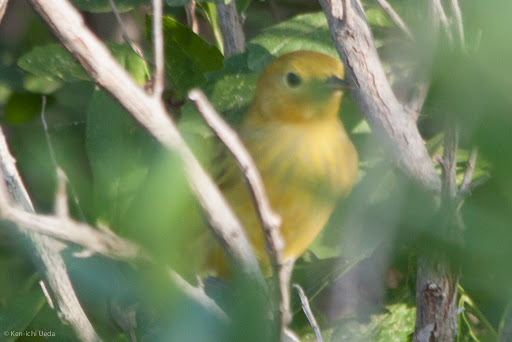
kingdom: Animalia
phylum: Chordata
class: Aves
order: Passeriformes
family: Parulidae
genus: Setophaga
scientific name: Setophaga petechia
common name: Yellow warbler
